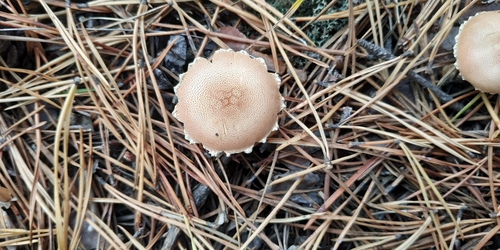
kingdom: Fungi
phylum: Basidiomycota
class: Agaricomycetes
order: Agaricales
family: Agaricaceae
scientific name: Agaricaceae
